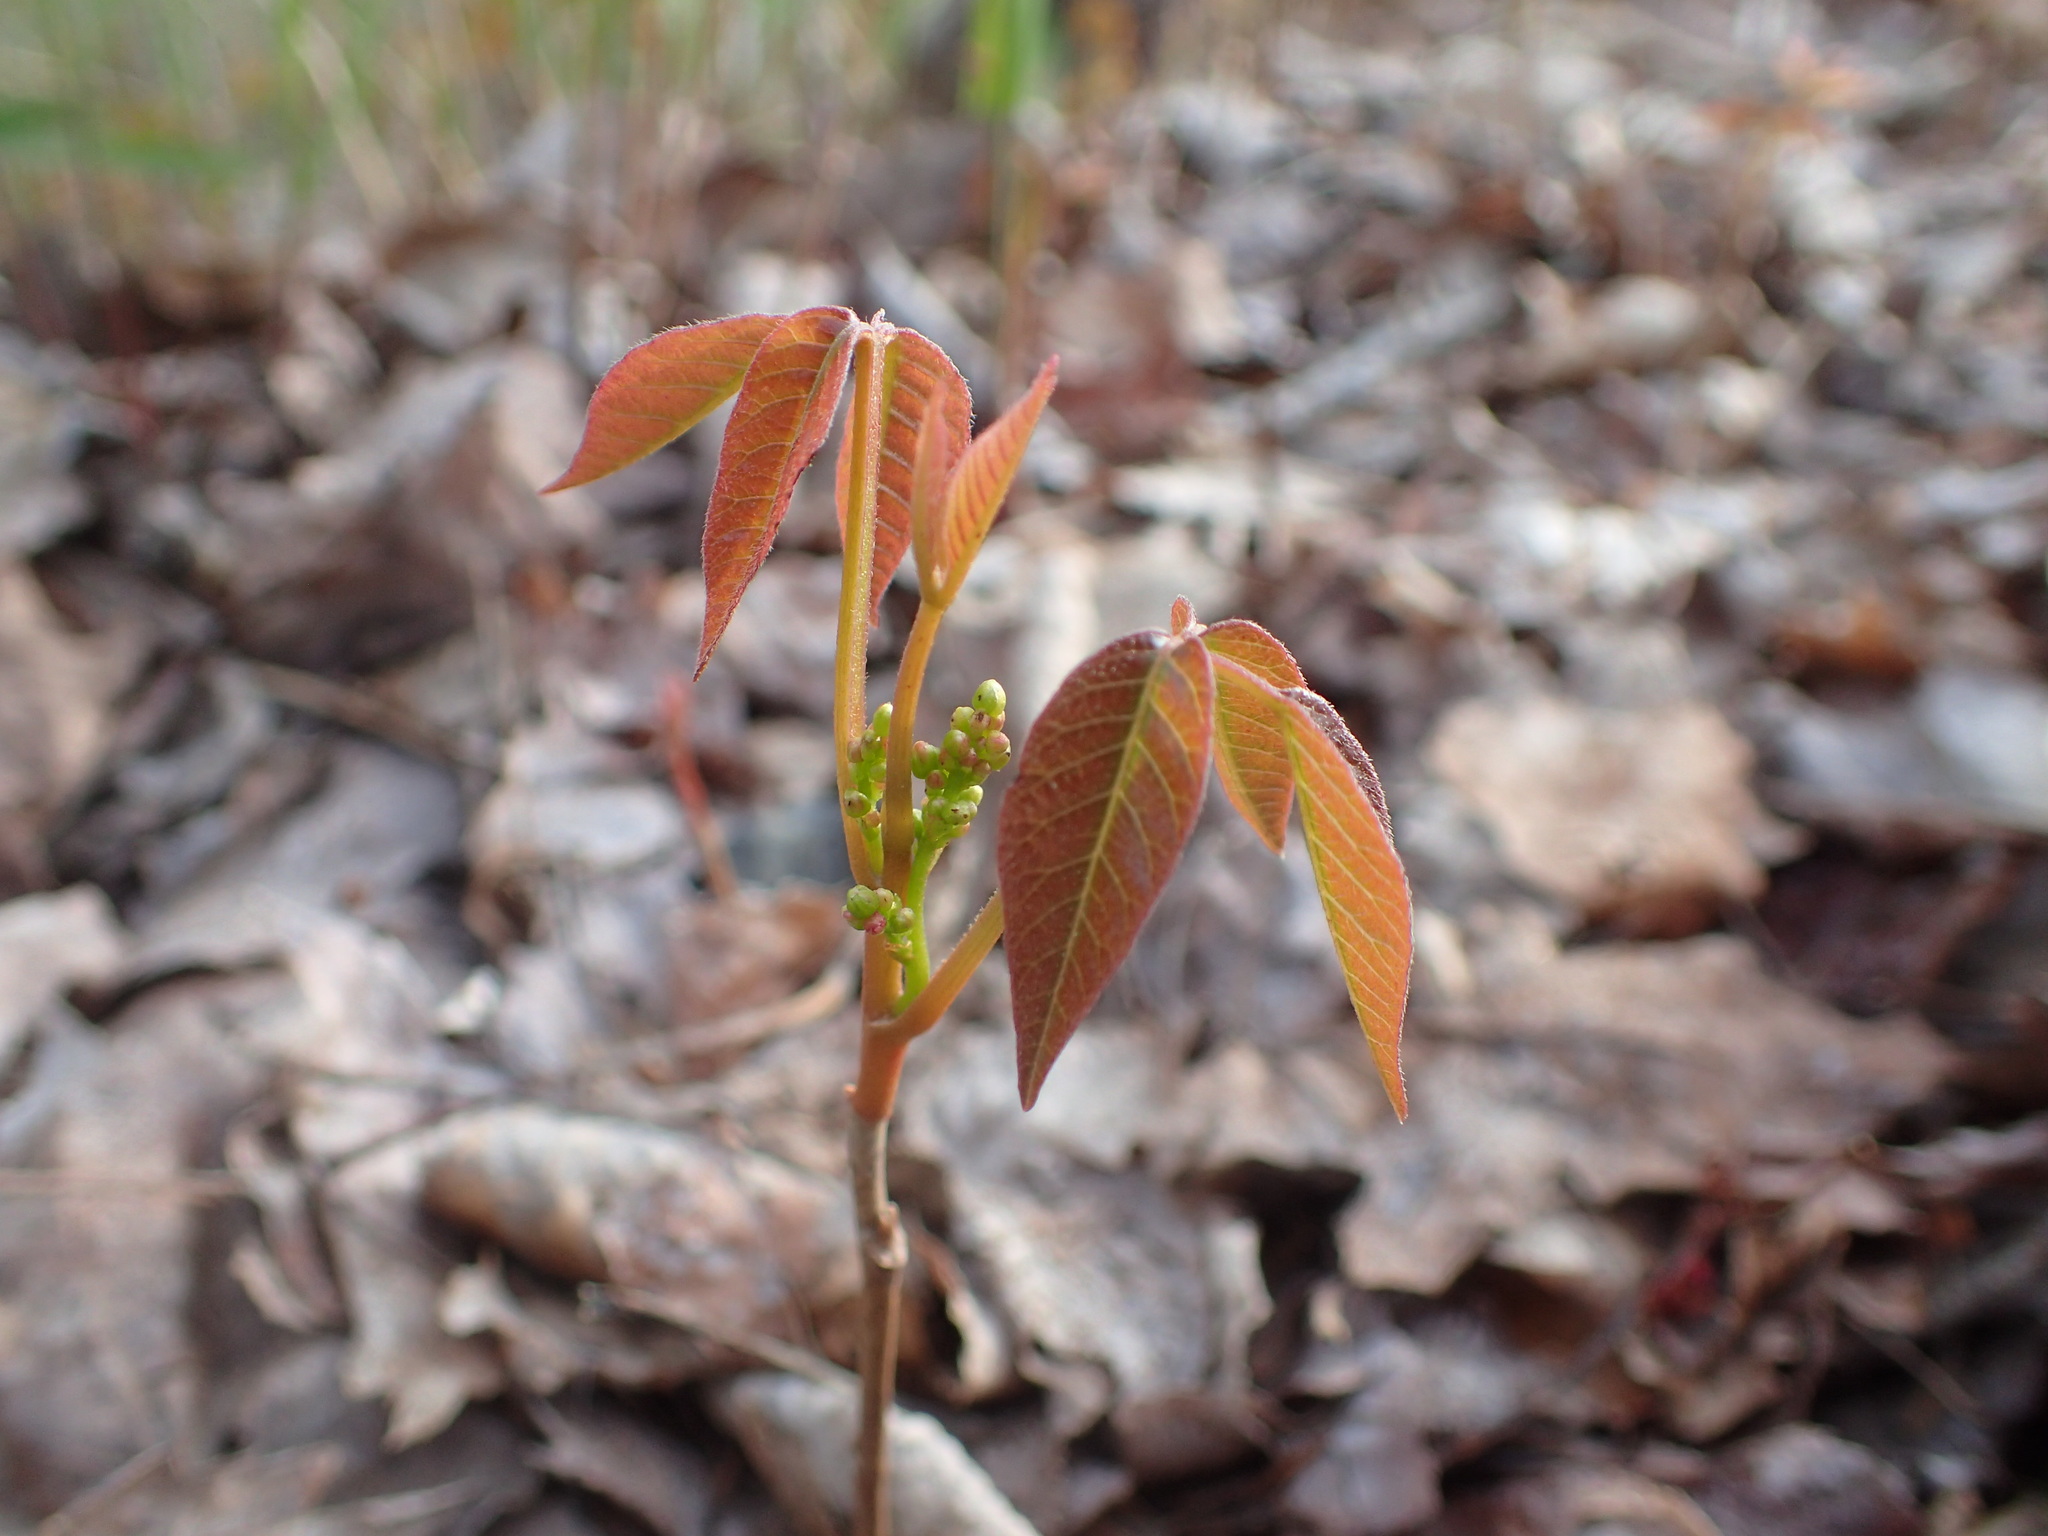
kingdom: Plantae
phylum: Tracheophyta
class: Magnoliopsida
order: Sapindales
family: Anacardiaceae
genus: Toxicodendron
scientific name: Toxicodendron radicans
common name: Poison ivy
